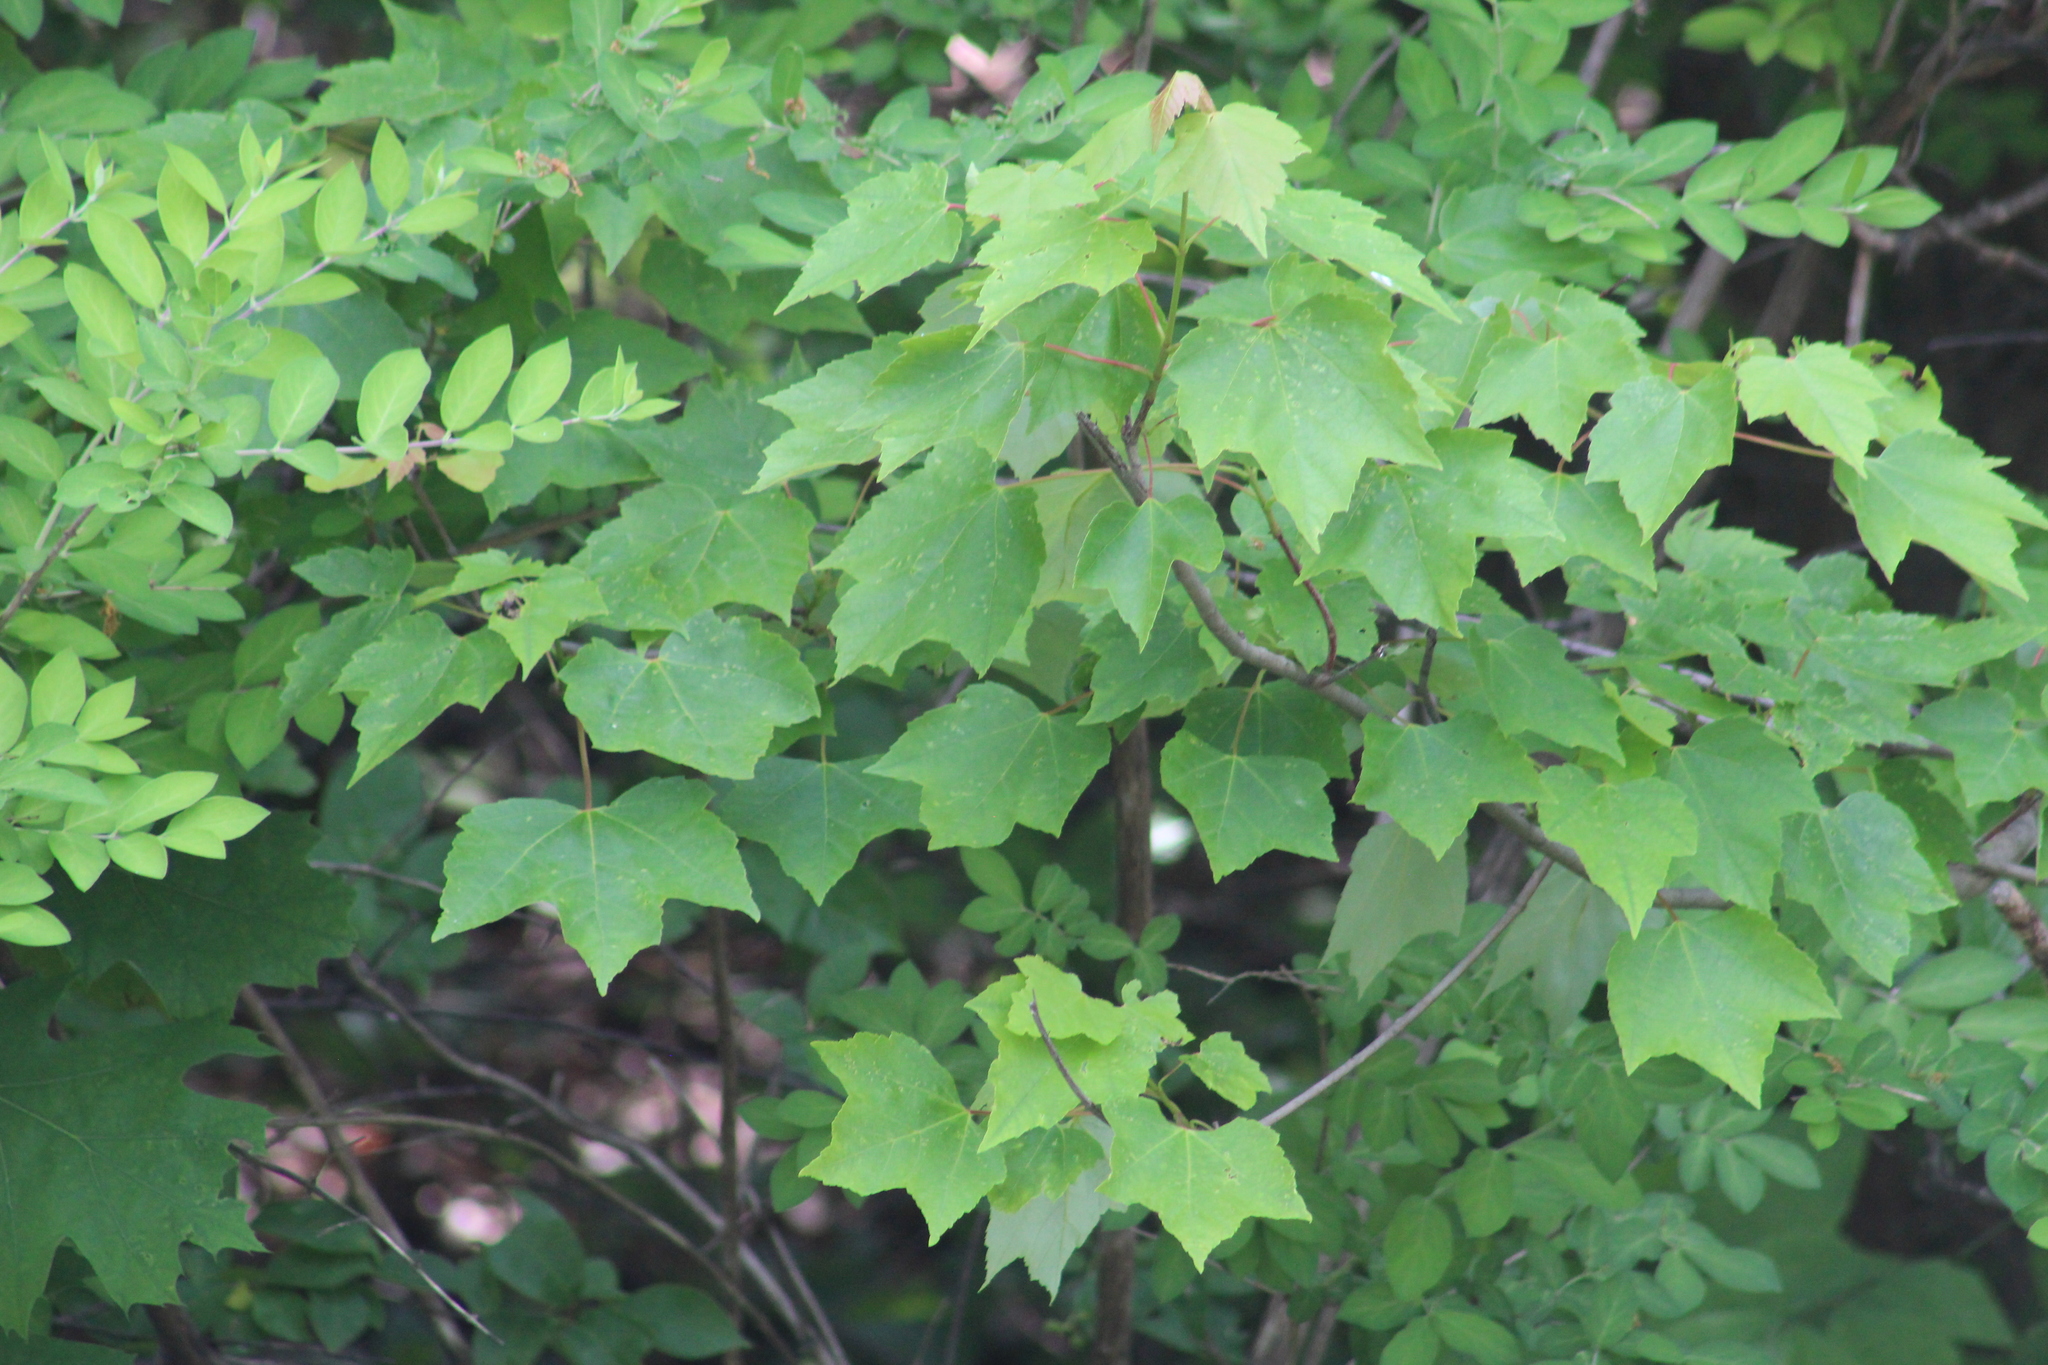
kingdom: Plantae
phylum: Tracheophyta
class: Magnoliopsida
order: Sapindales
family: Sapindaceae
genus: Acer
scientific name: Acer rubrum
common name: Red maple
